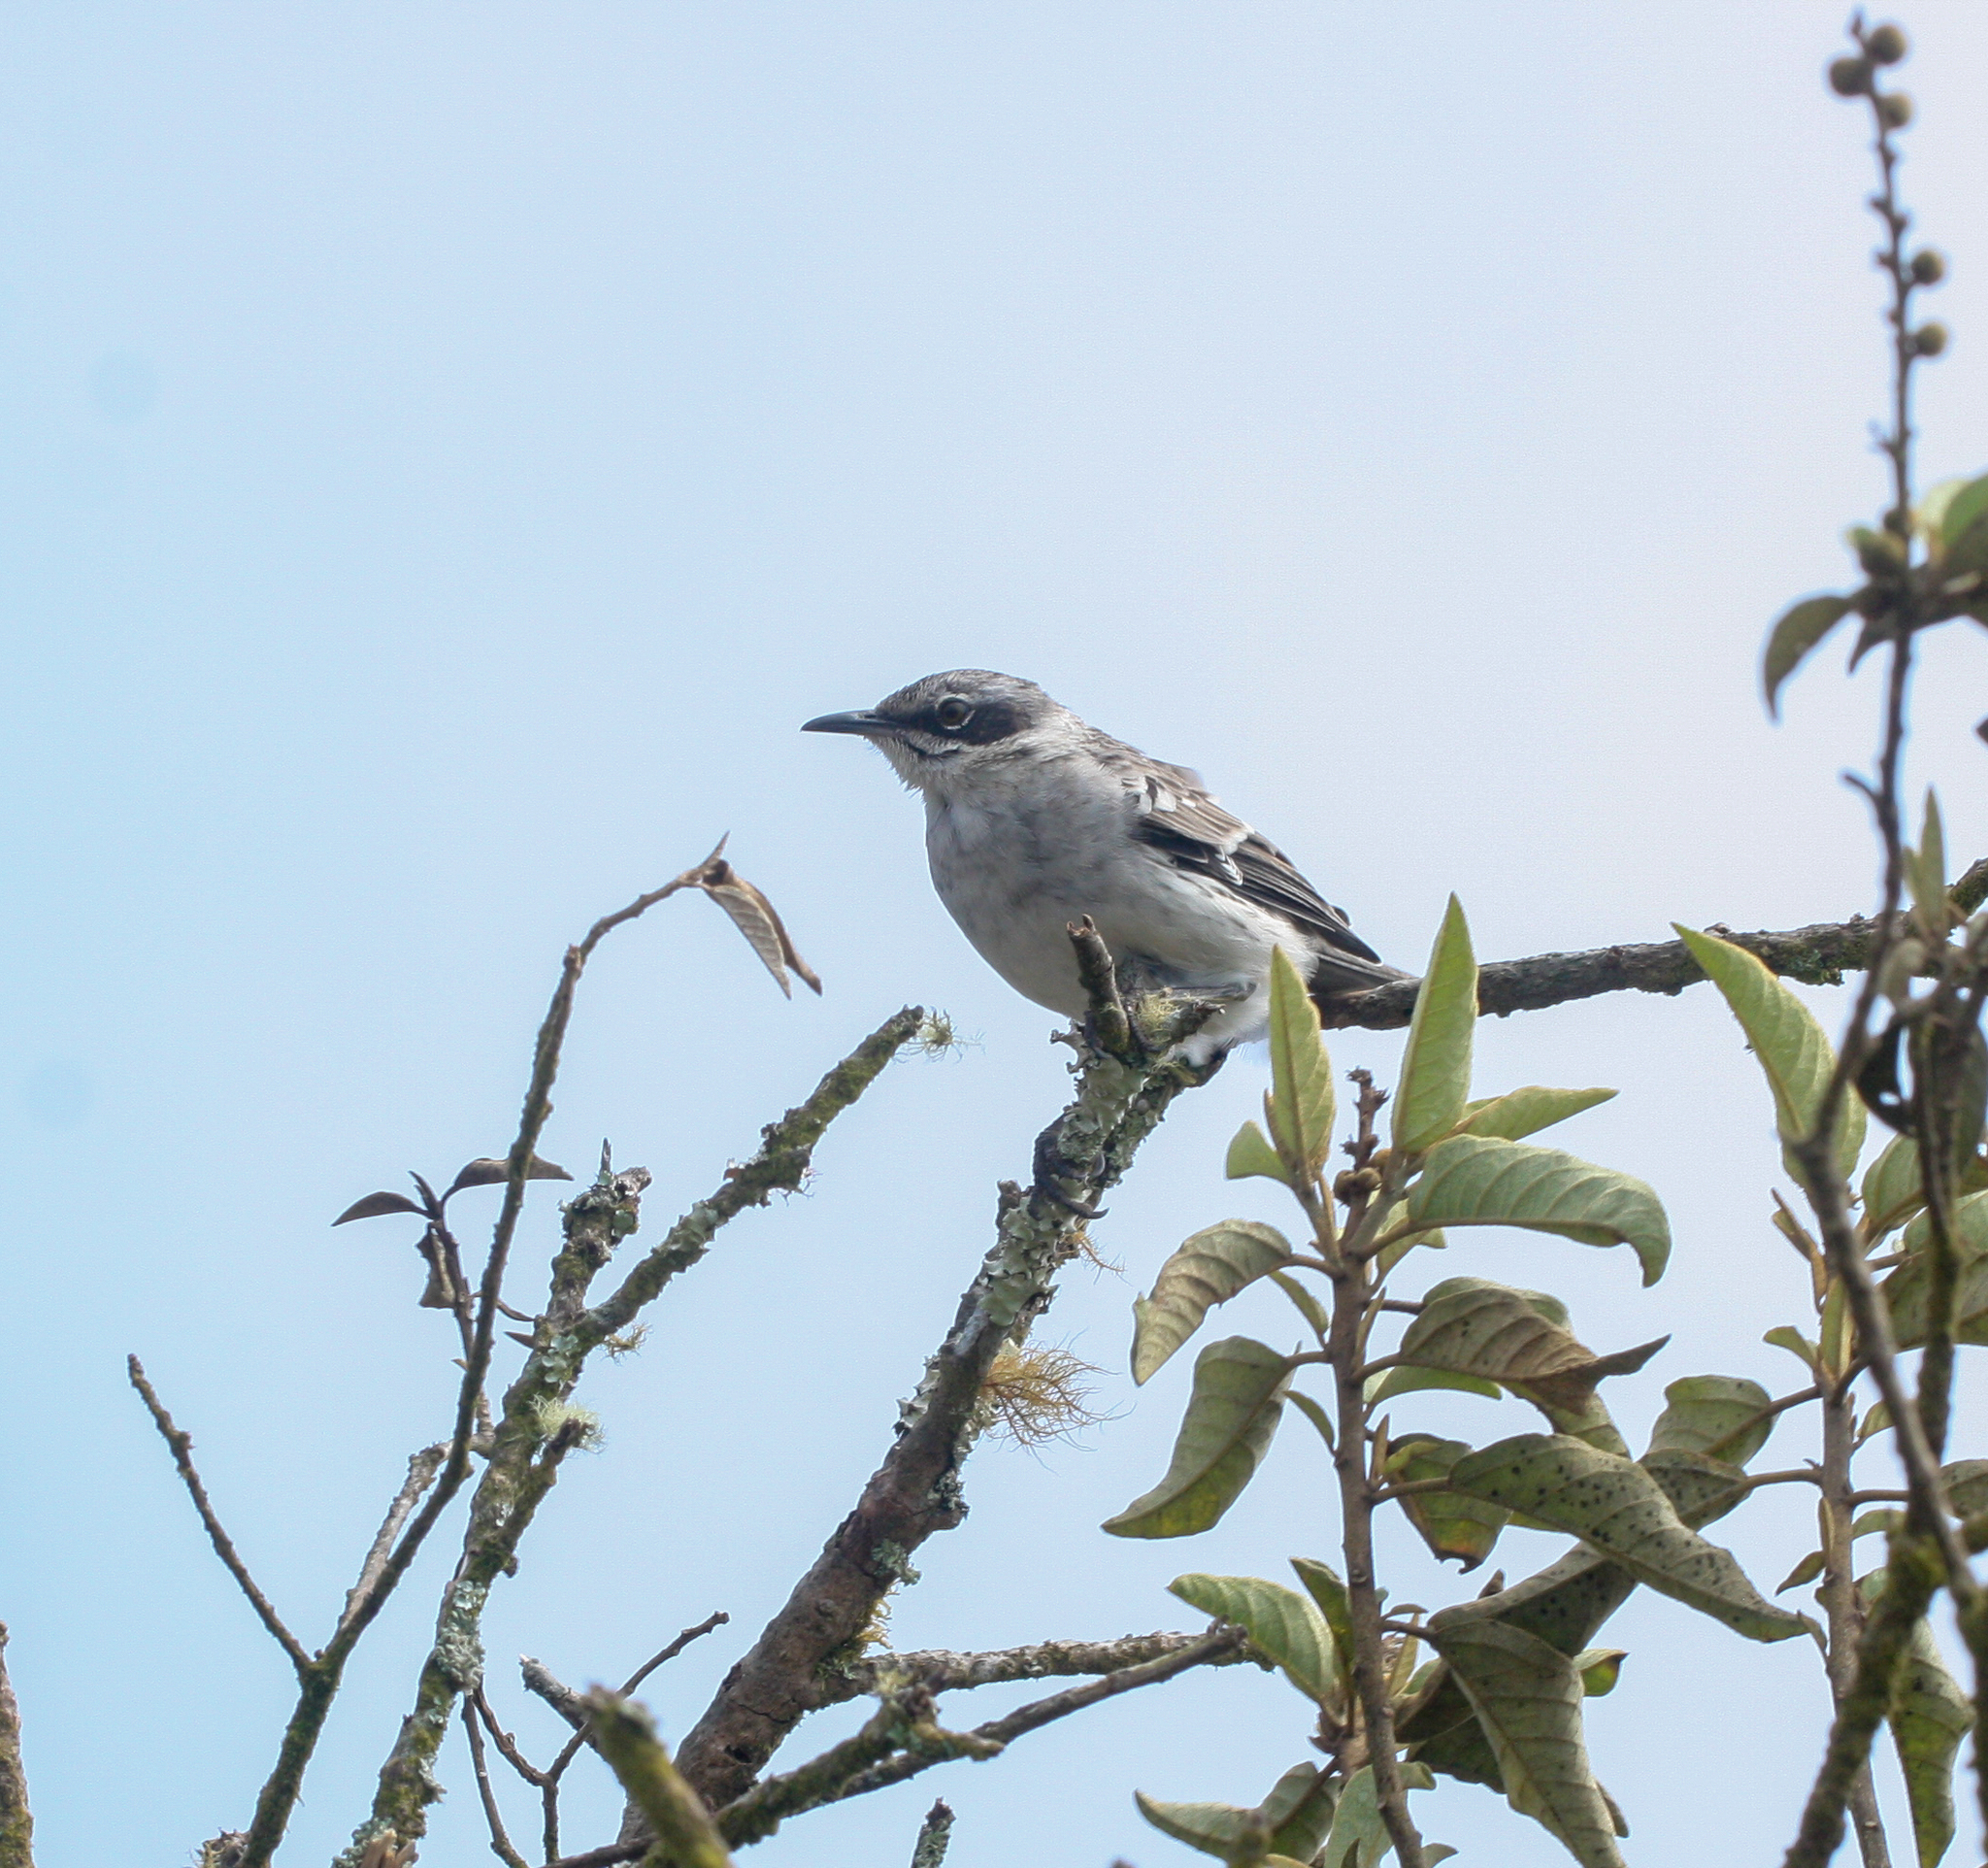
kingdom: Animalia
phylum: Chordata
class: Aves
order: Passeriformes
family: Mimidae
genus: Mimus
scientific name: Mimus parvulus
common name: Galapagos mockingbird
